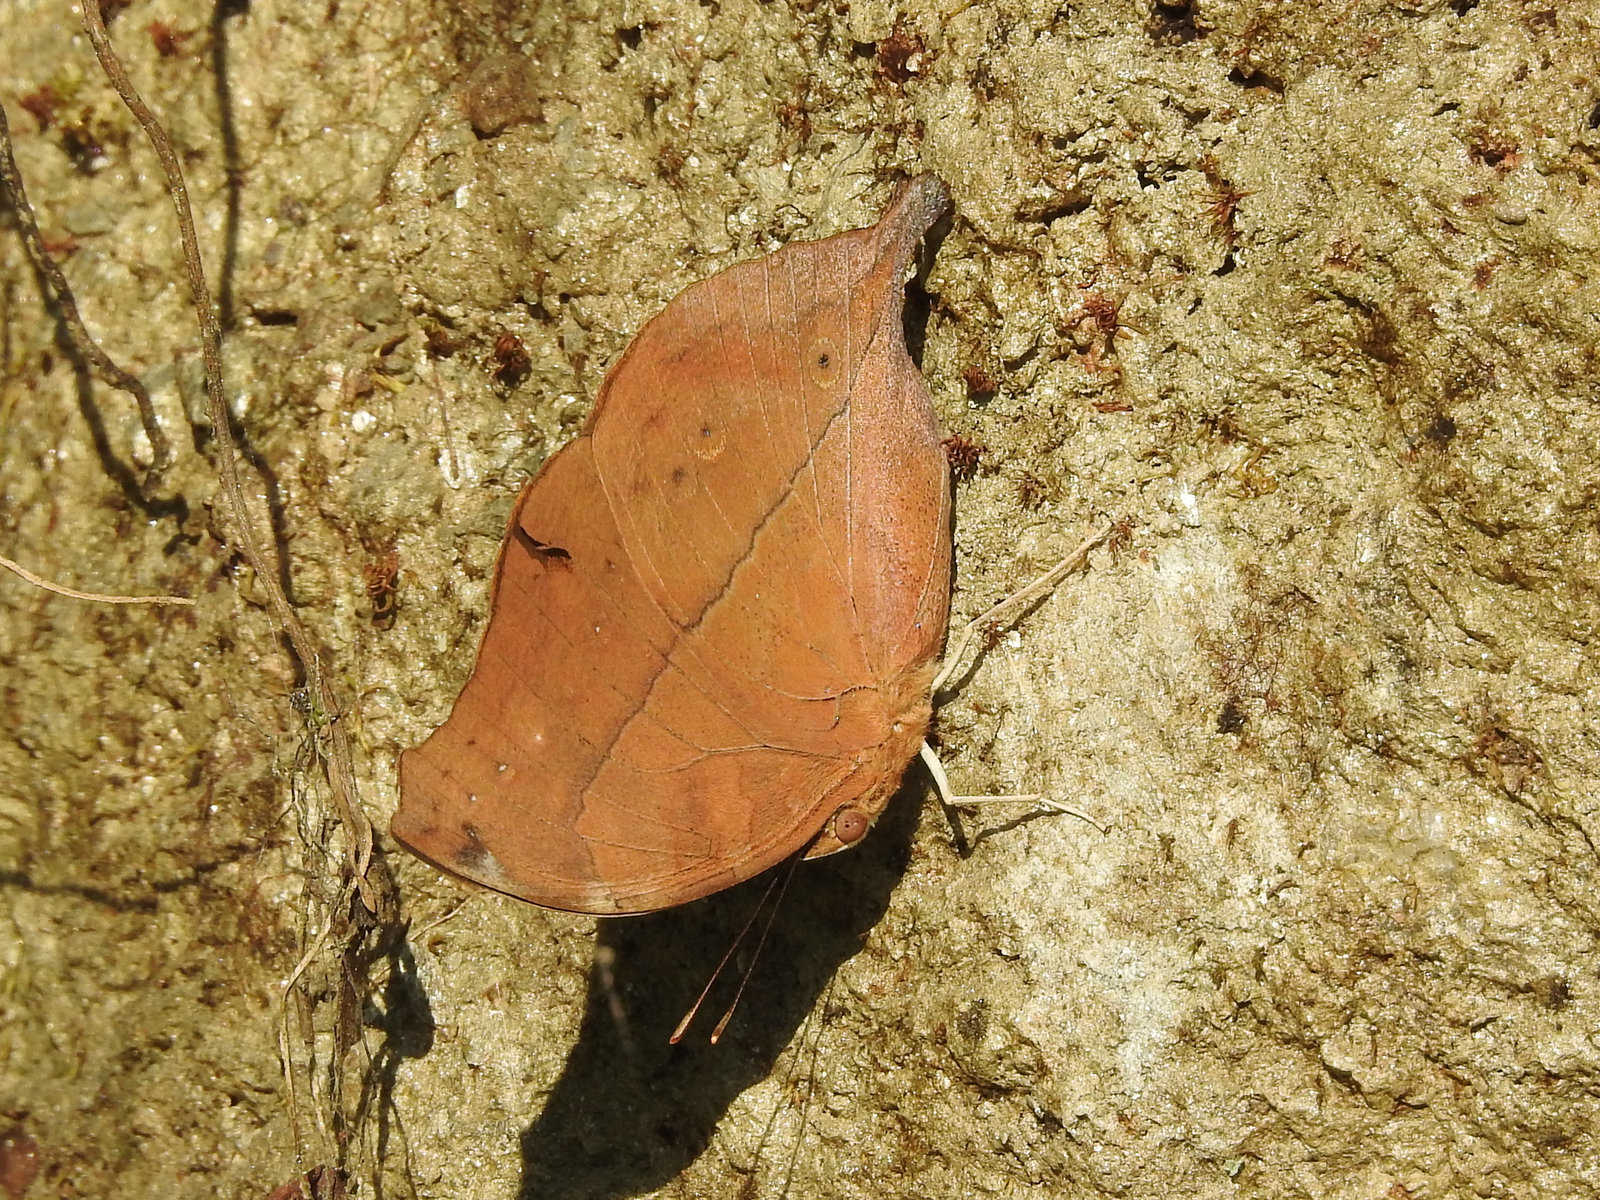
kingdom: Animalia
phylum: Arthropoda
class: Insecta
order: Lepidoptera
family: Nymphalidae
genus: Doleschallia
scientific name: Doleschallia bisaltide
